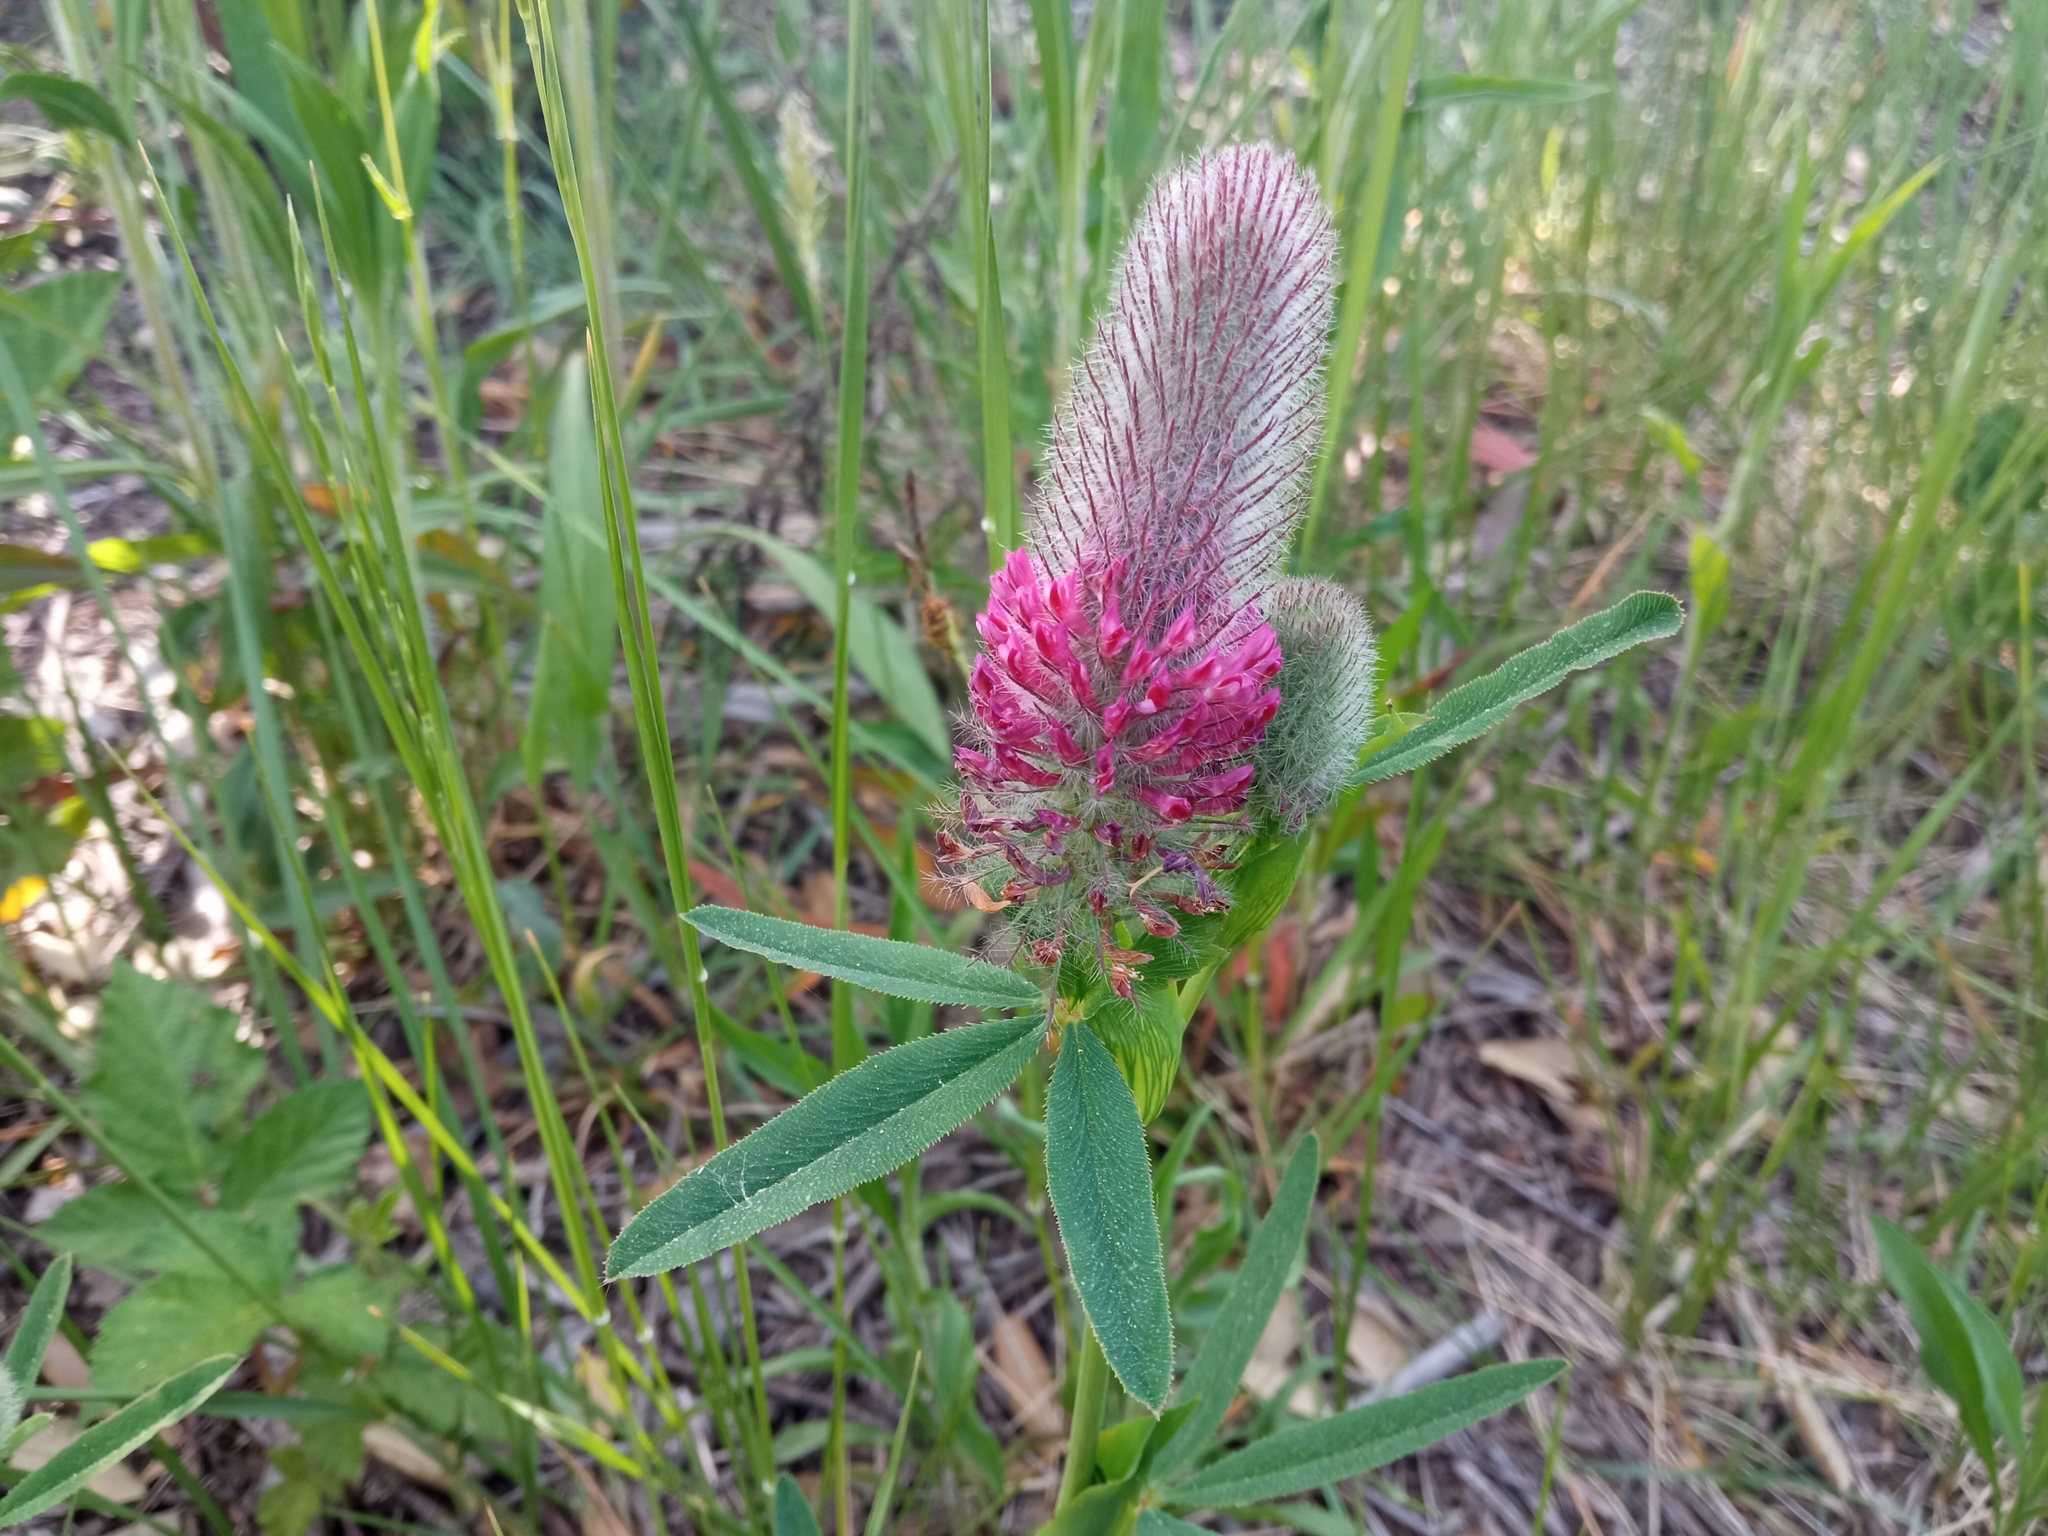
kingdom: Plantae
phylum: Tracheophyta
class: Magnoliopsida
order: Fabales
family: Fabaceae
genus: Trifolium
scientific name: Trifolium rubens
